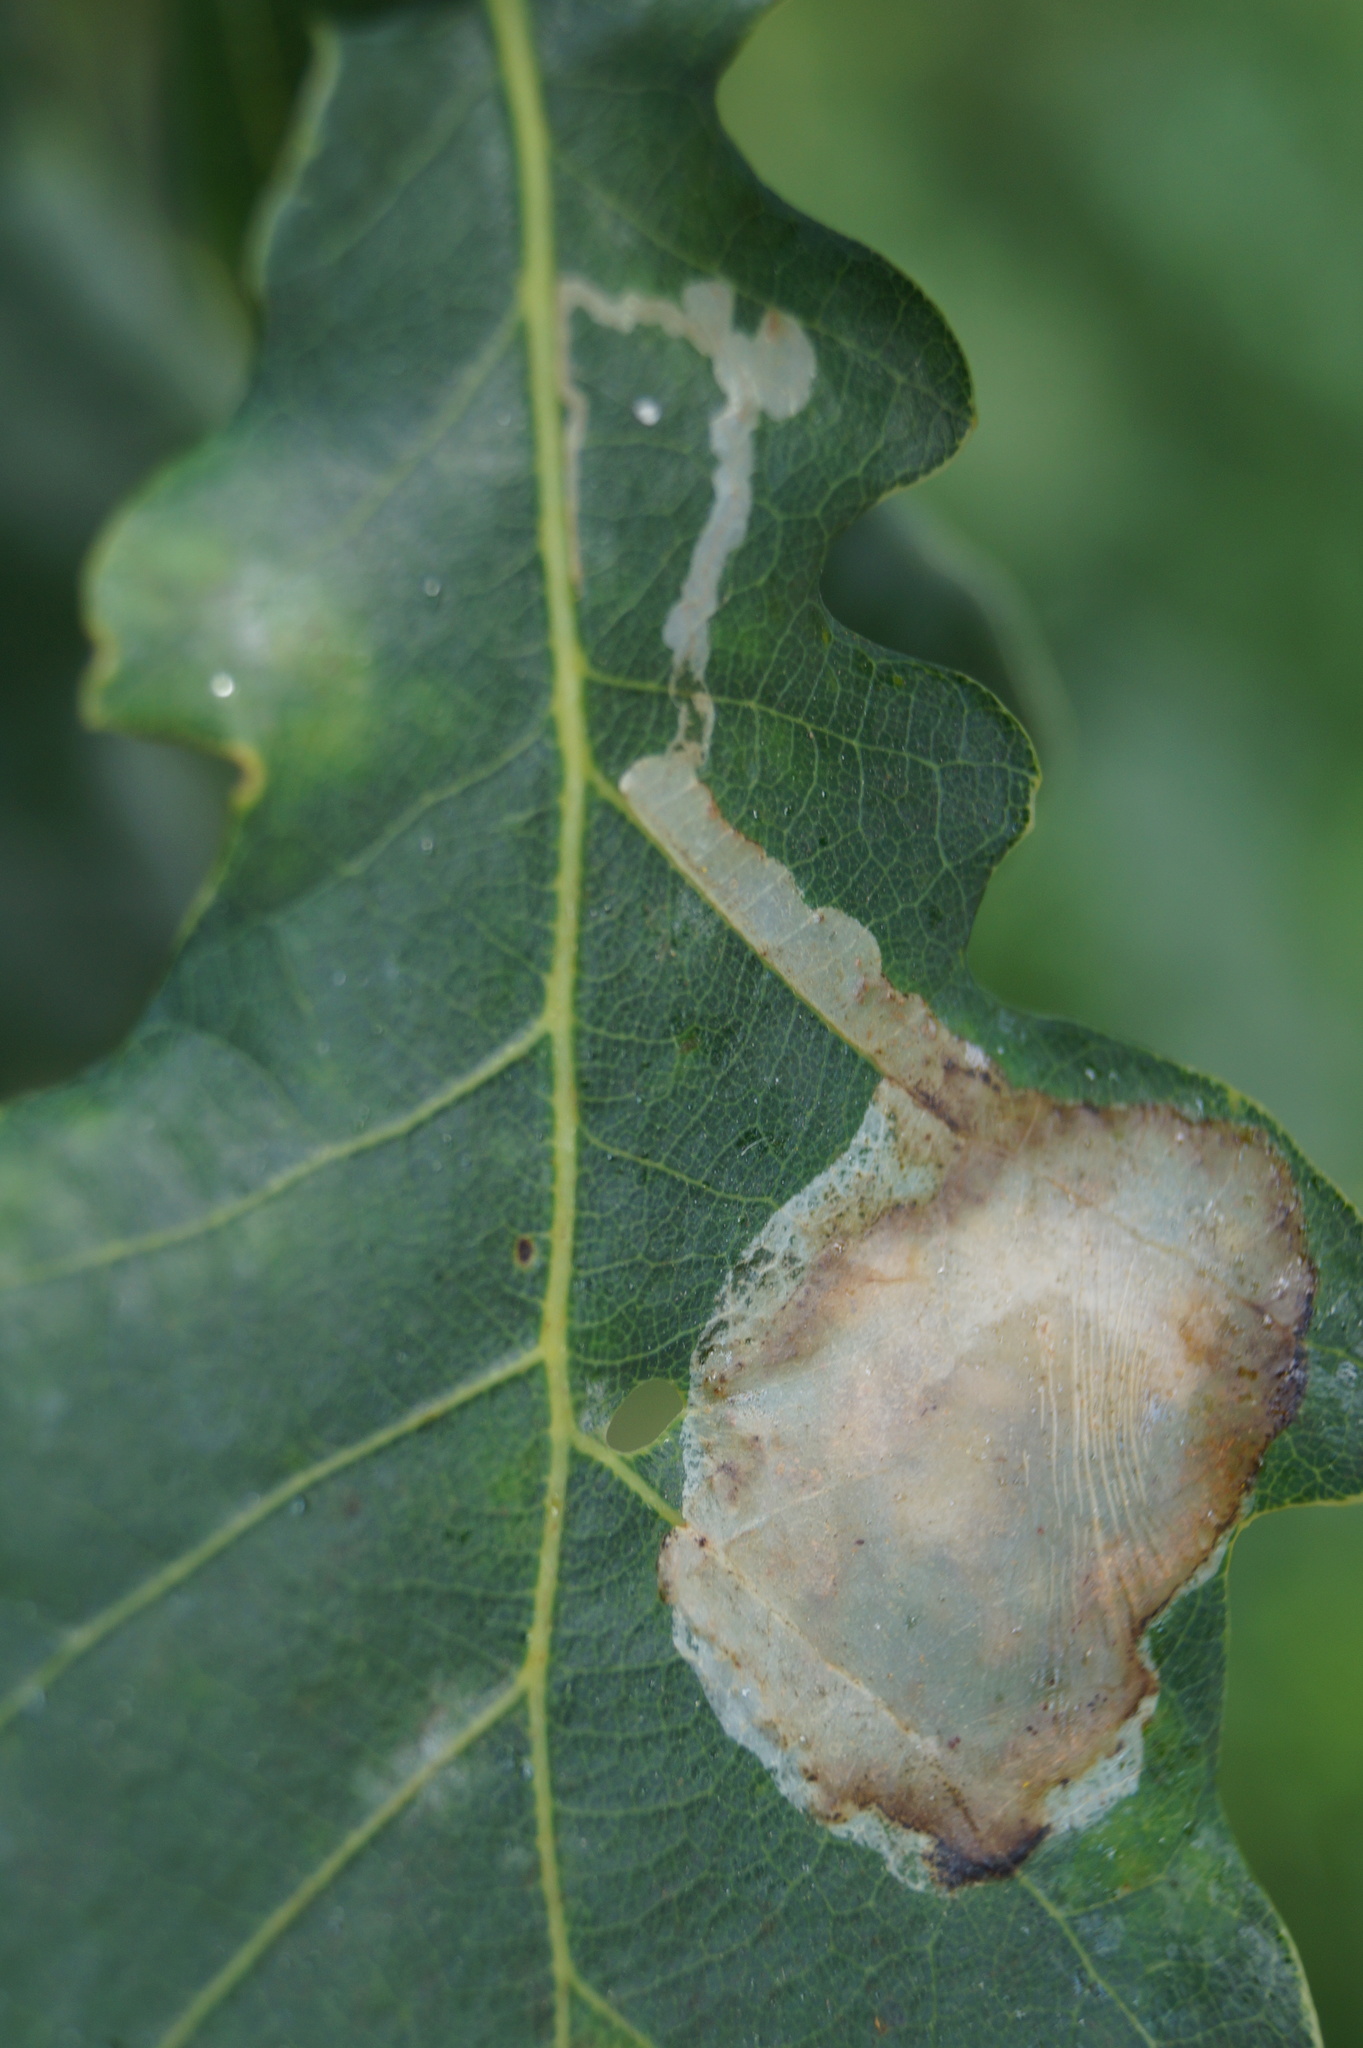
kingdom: Animalia
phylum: Arthropoda
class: Insecta
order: Lepidoptera
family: Gracillariidae
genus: Acrocercops
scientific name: Acrocercops brongniardella
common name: Brown oak slender
